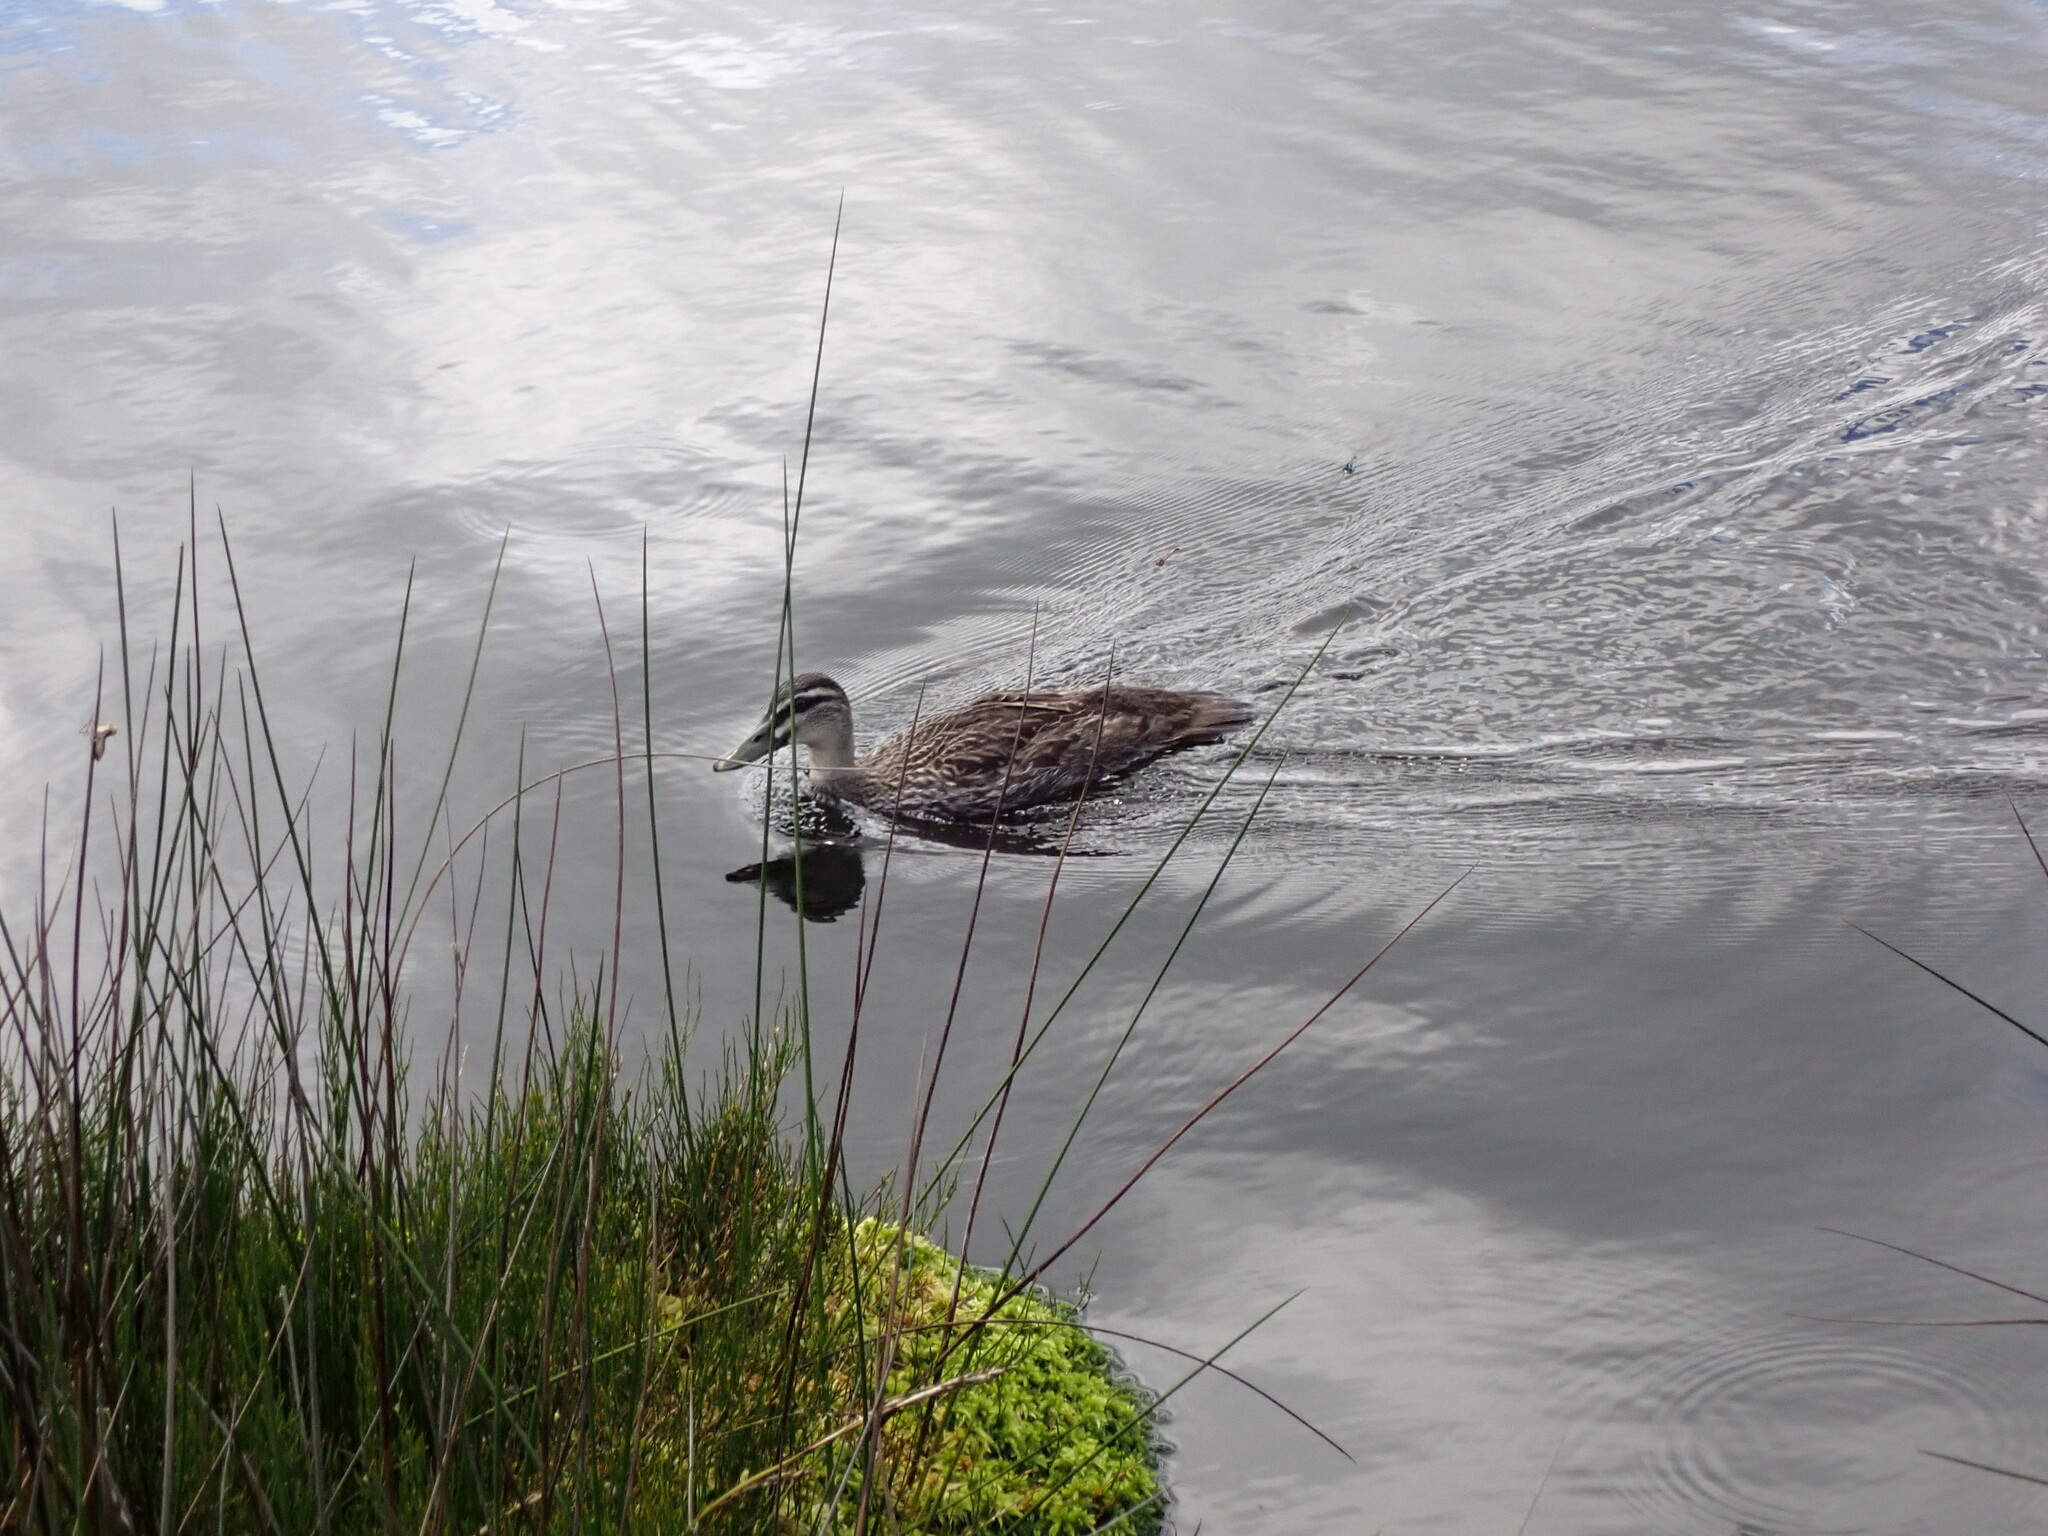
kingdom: Animalia
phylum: Chordata
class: Aves
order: Anseriformes
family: Anatidae
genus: Anas
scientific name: Anas
